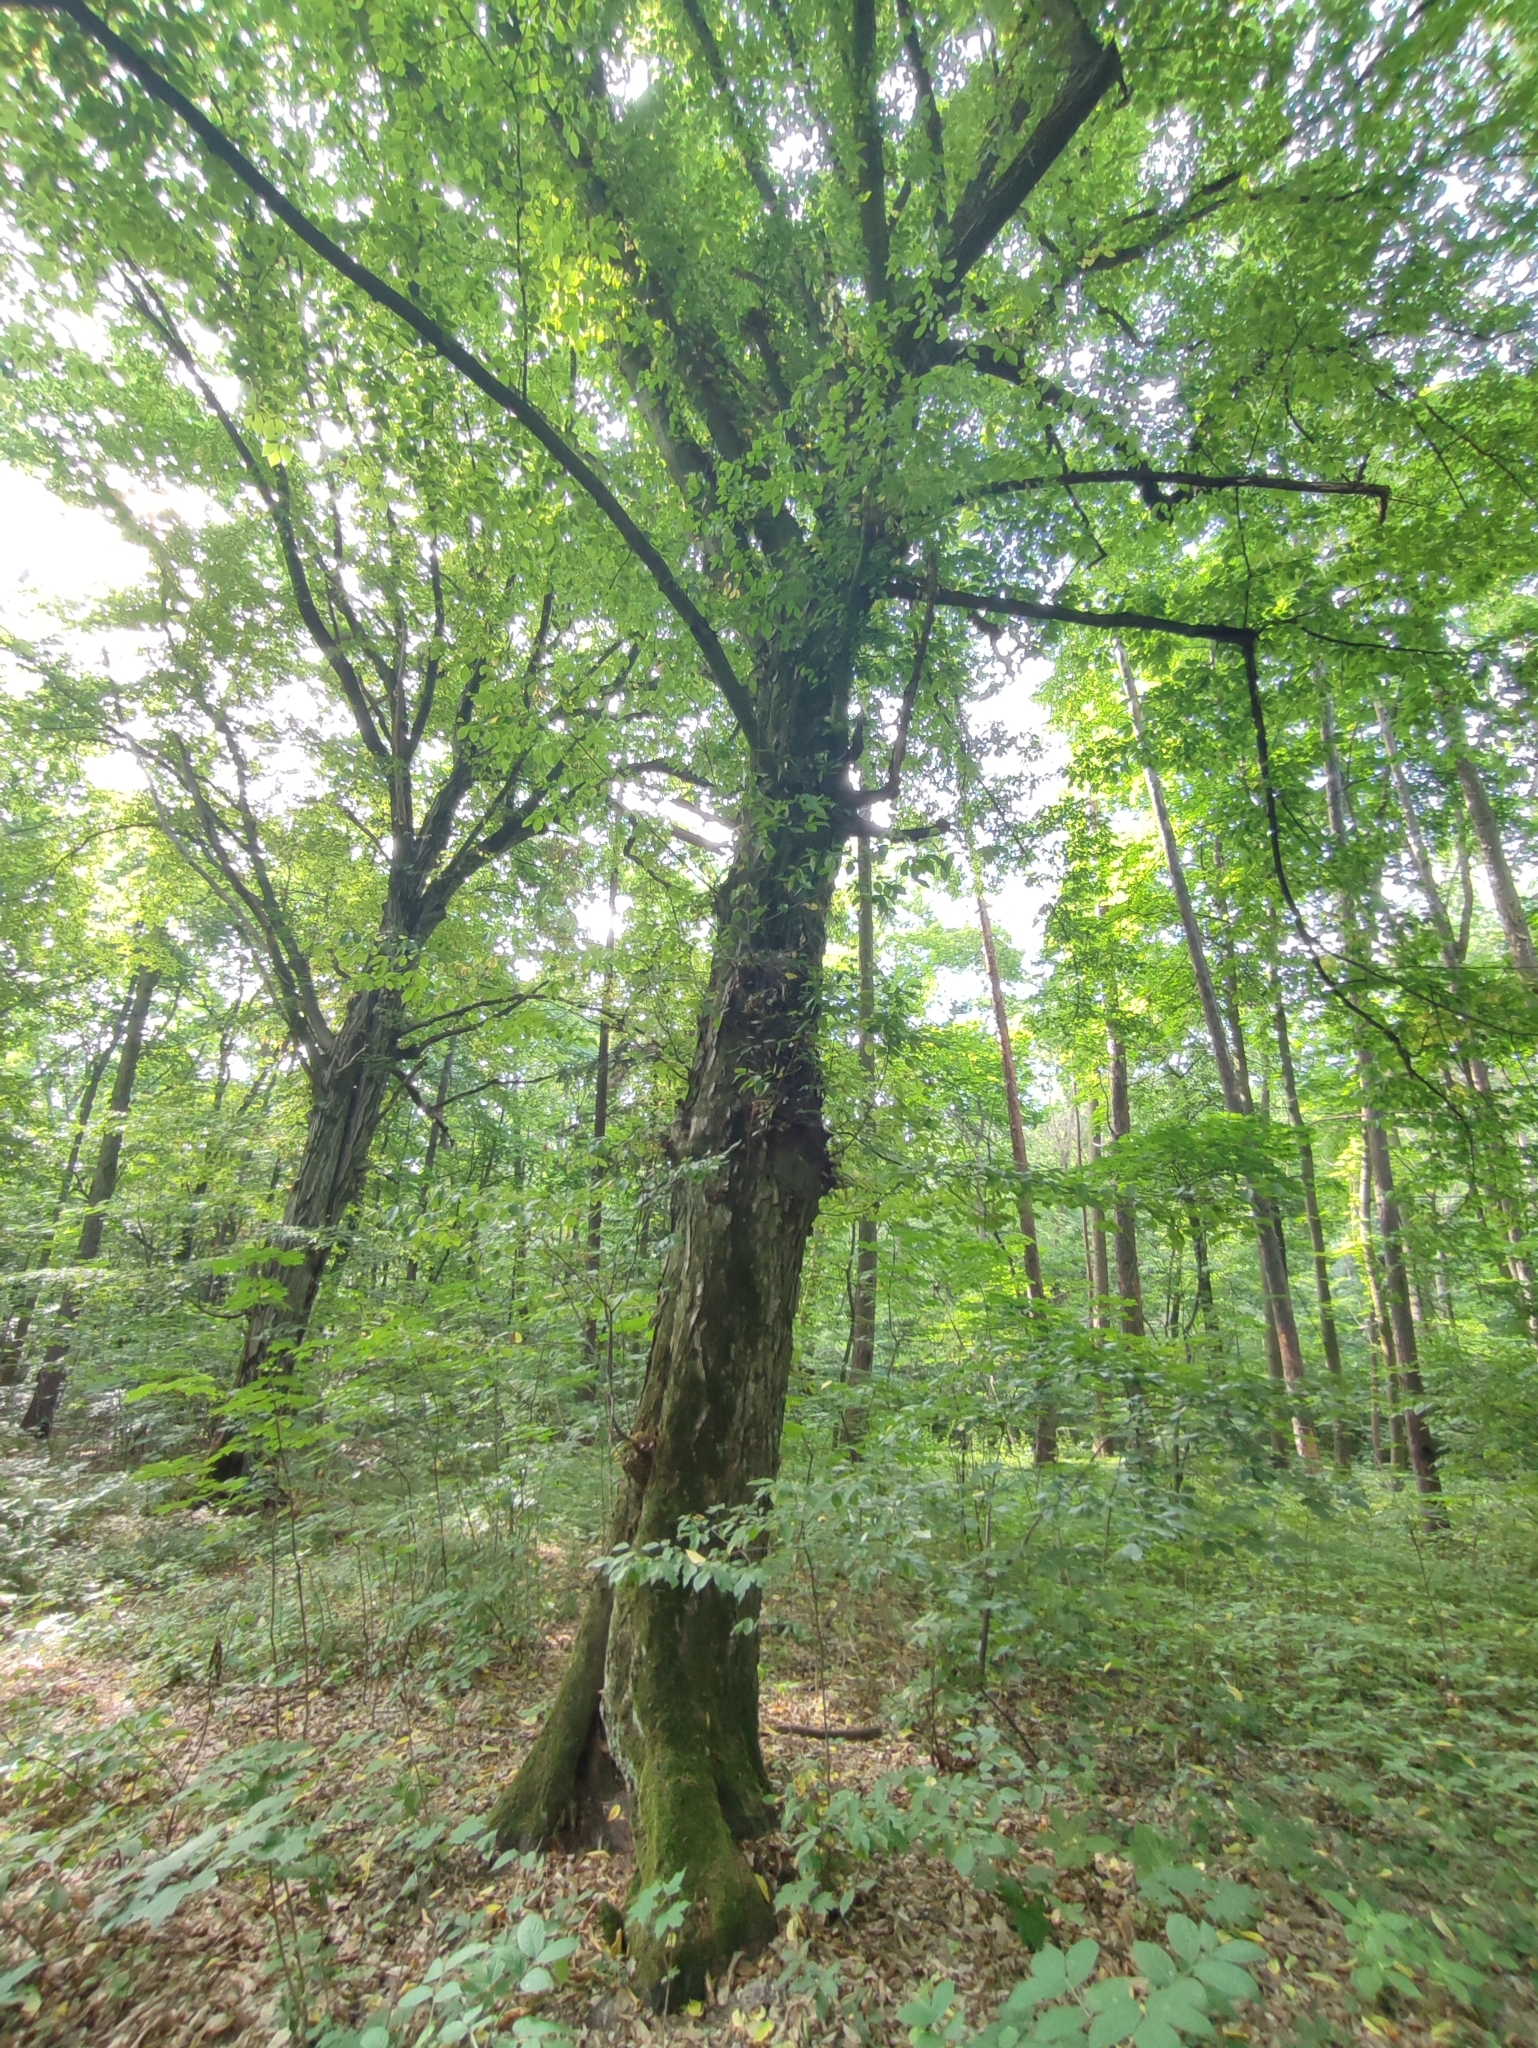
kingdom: Plantae
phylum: Tracheophyta
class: Magnoliopsida
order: Fagales
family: Betulaceae
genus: Carpinus
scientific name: Carpinus betulus
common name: Hornbeam
